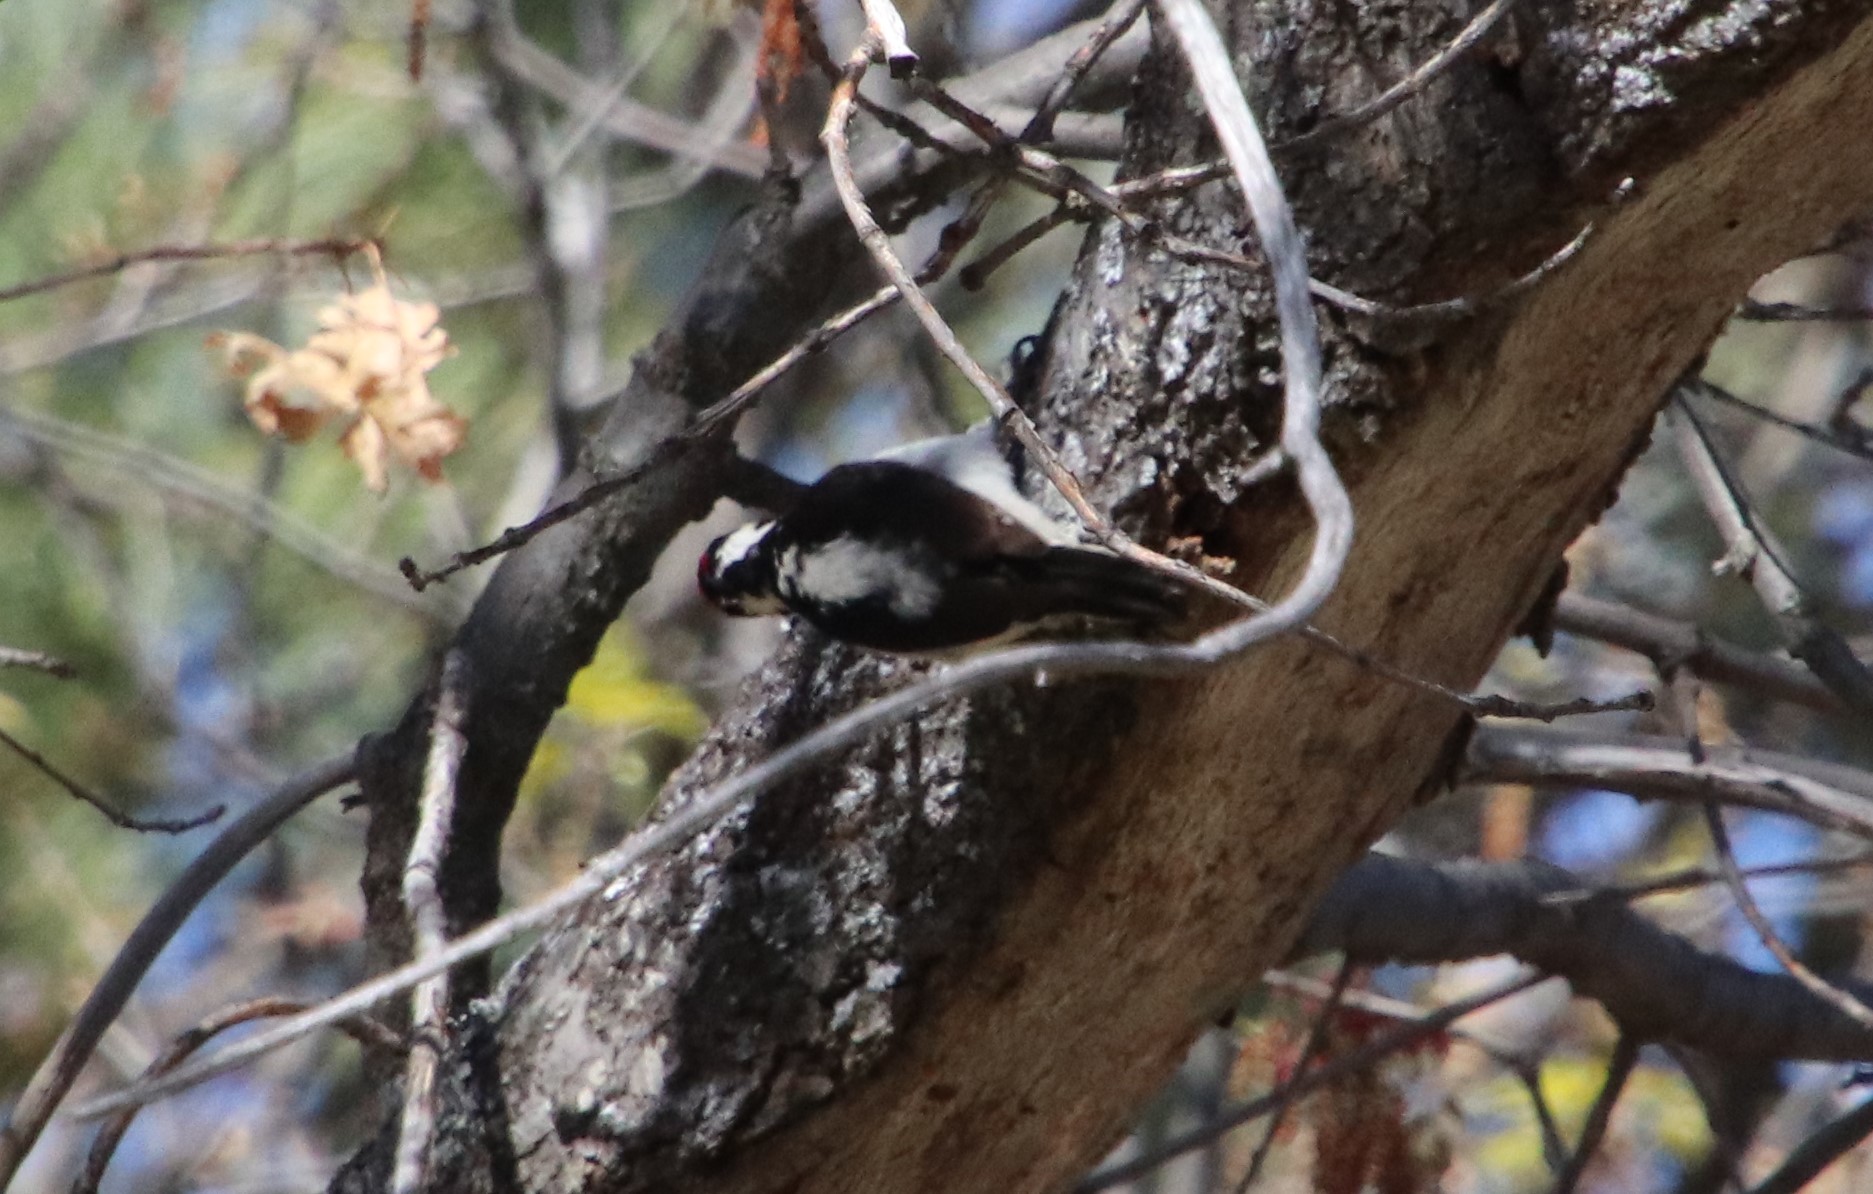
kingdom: Animalia
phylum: Chordata
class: Aves
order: Piciformes
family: Picidae
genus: Leuconotopicus
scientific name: Leuconotopicus villosus
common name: Hairy woodpecker
